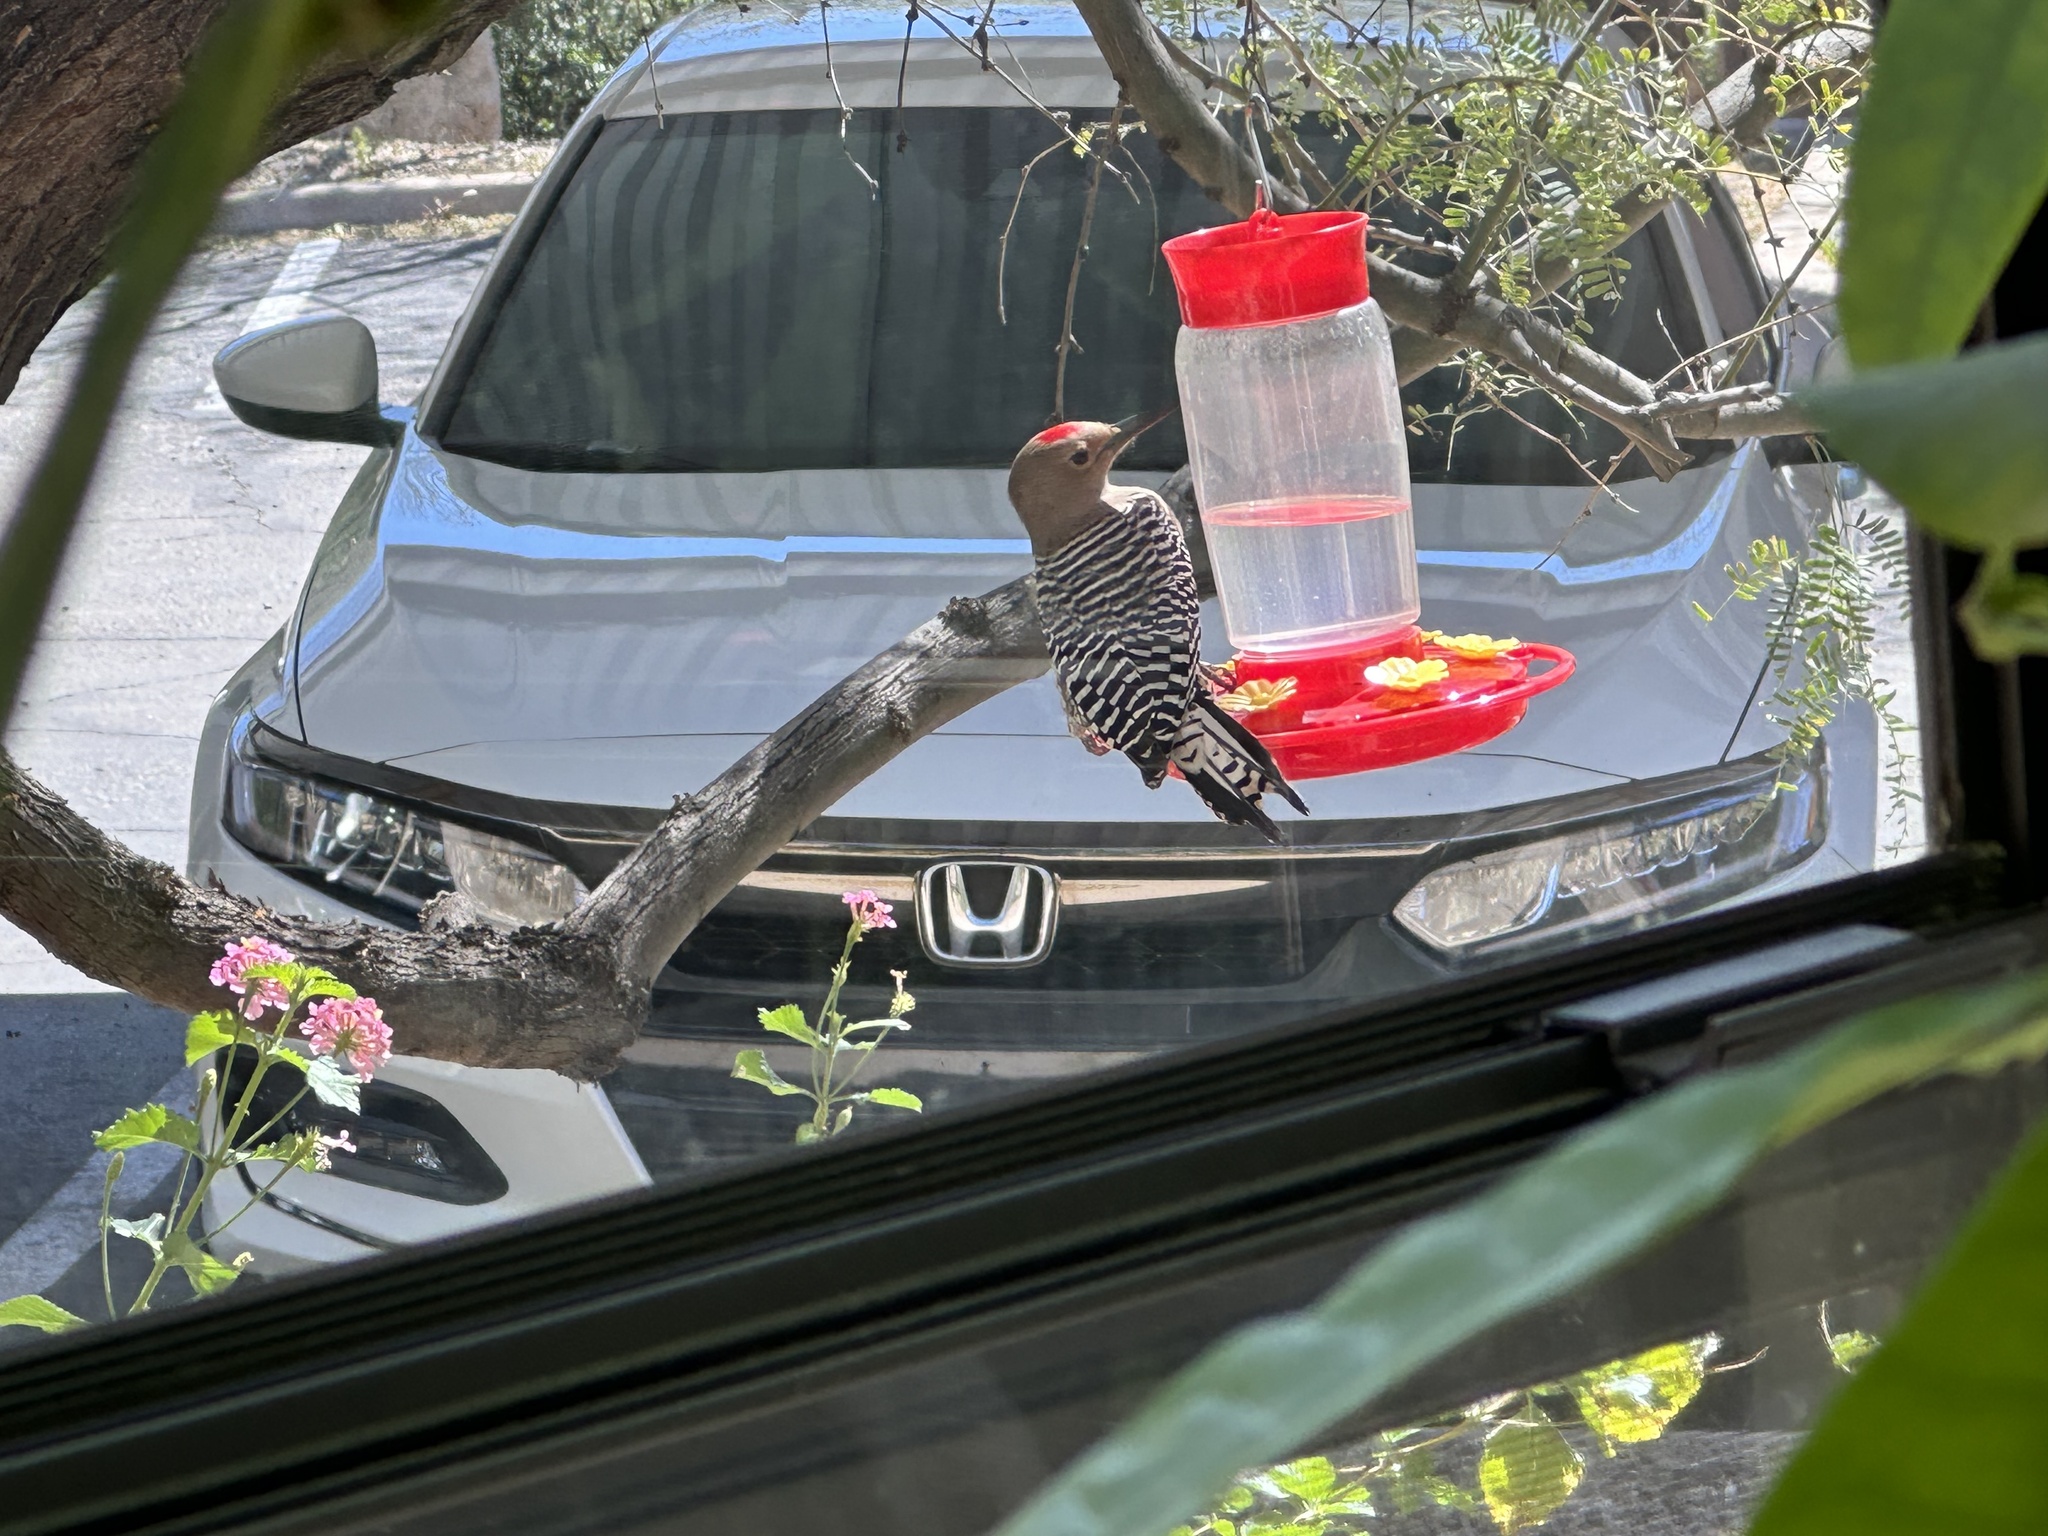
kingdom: Animalia
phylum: Chordata
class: Aves
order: Piciformes
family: Picidae
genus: Melanerpes
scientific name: Melanerpes uropygialis
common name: Gila woodpecker
